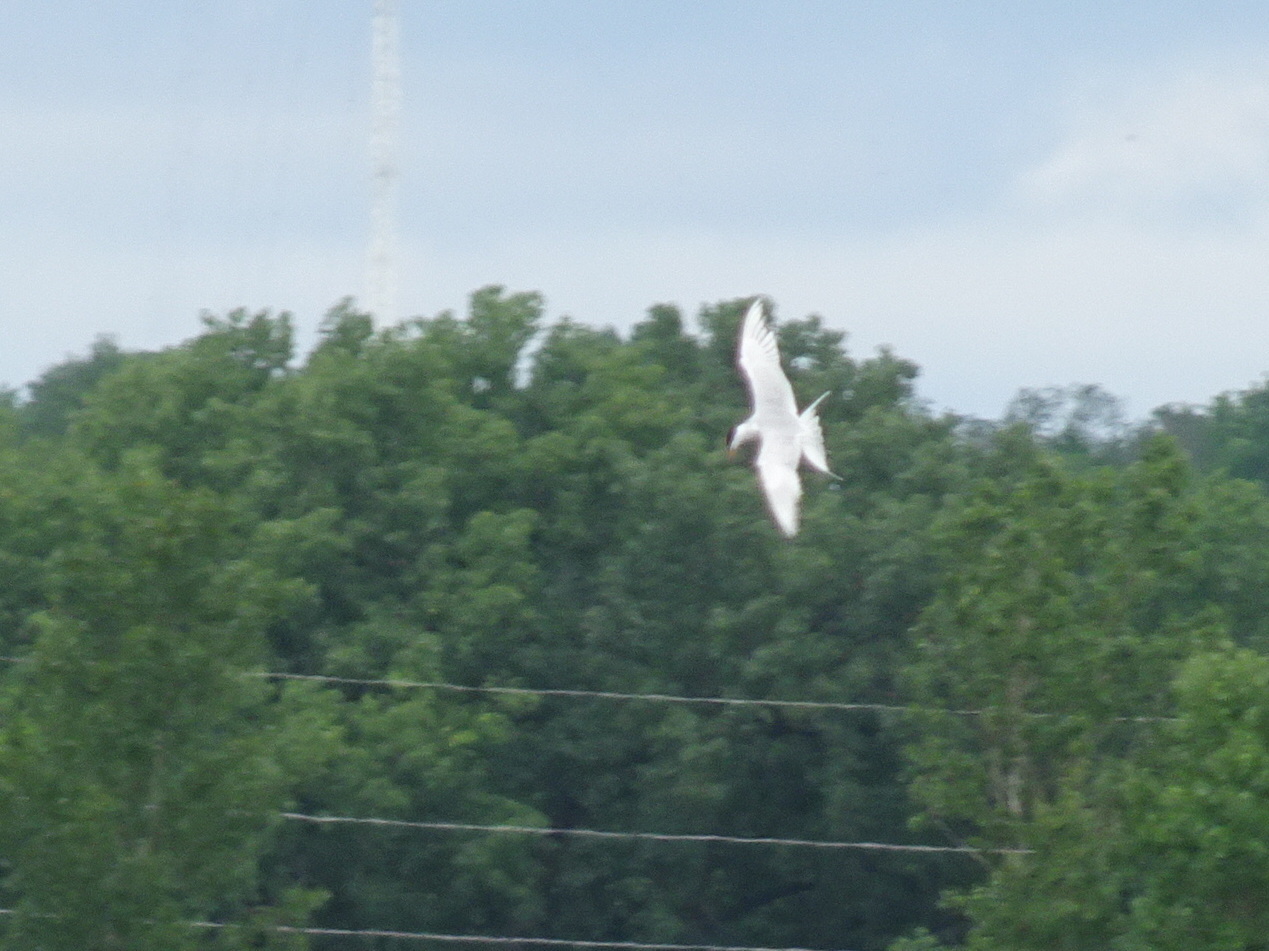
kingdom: Animalia
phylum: Chordata
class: Aves
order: Charadriiformes
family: Laridae
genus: Sterna
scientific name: Sterna forsteri
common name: Forster's tern
